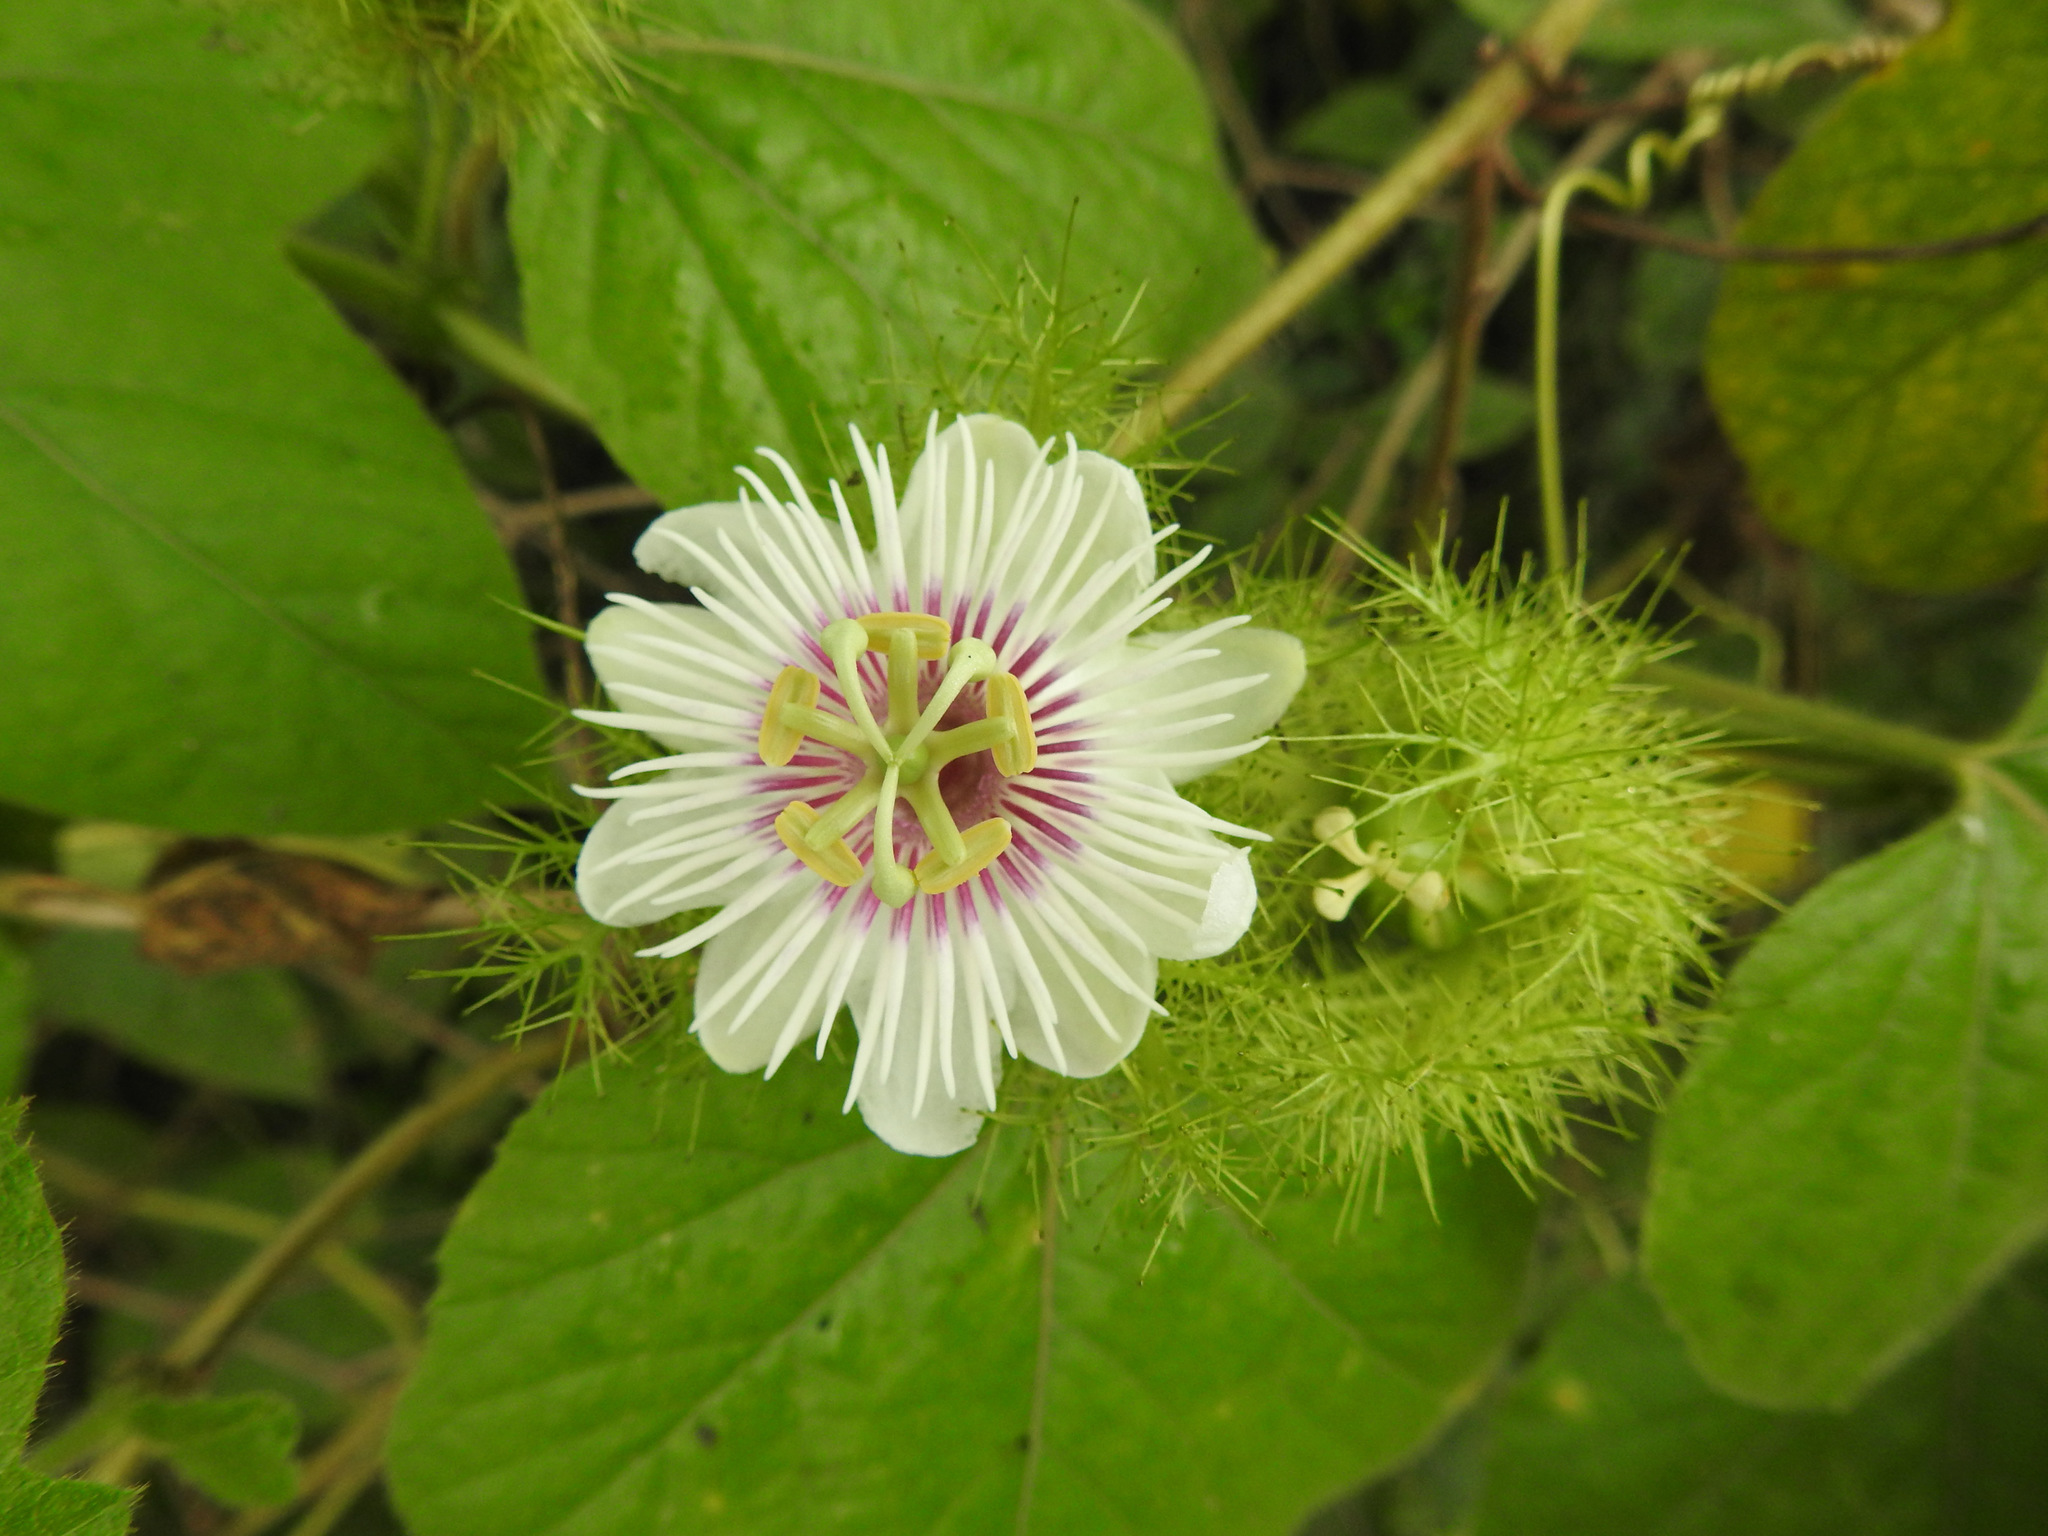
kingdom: Plantae
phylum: Tracheophyta
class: Magnoliopsida
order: Malpighiales
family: Passifloraceae
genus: Passiflora
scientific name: Passiflora foetida
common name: Fetid passionflower
